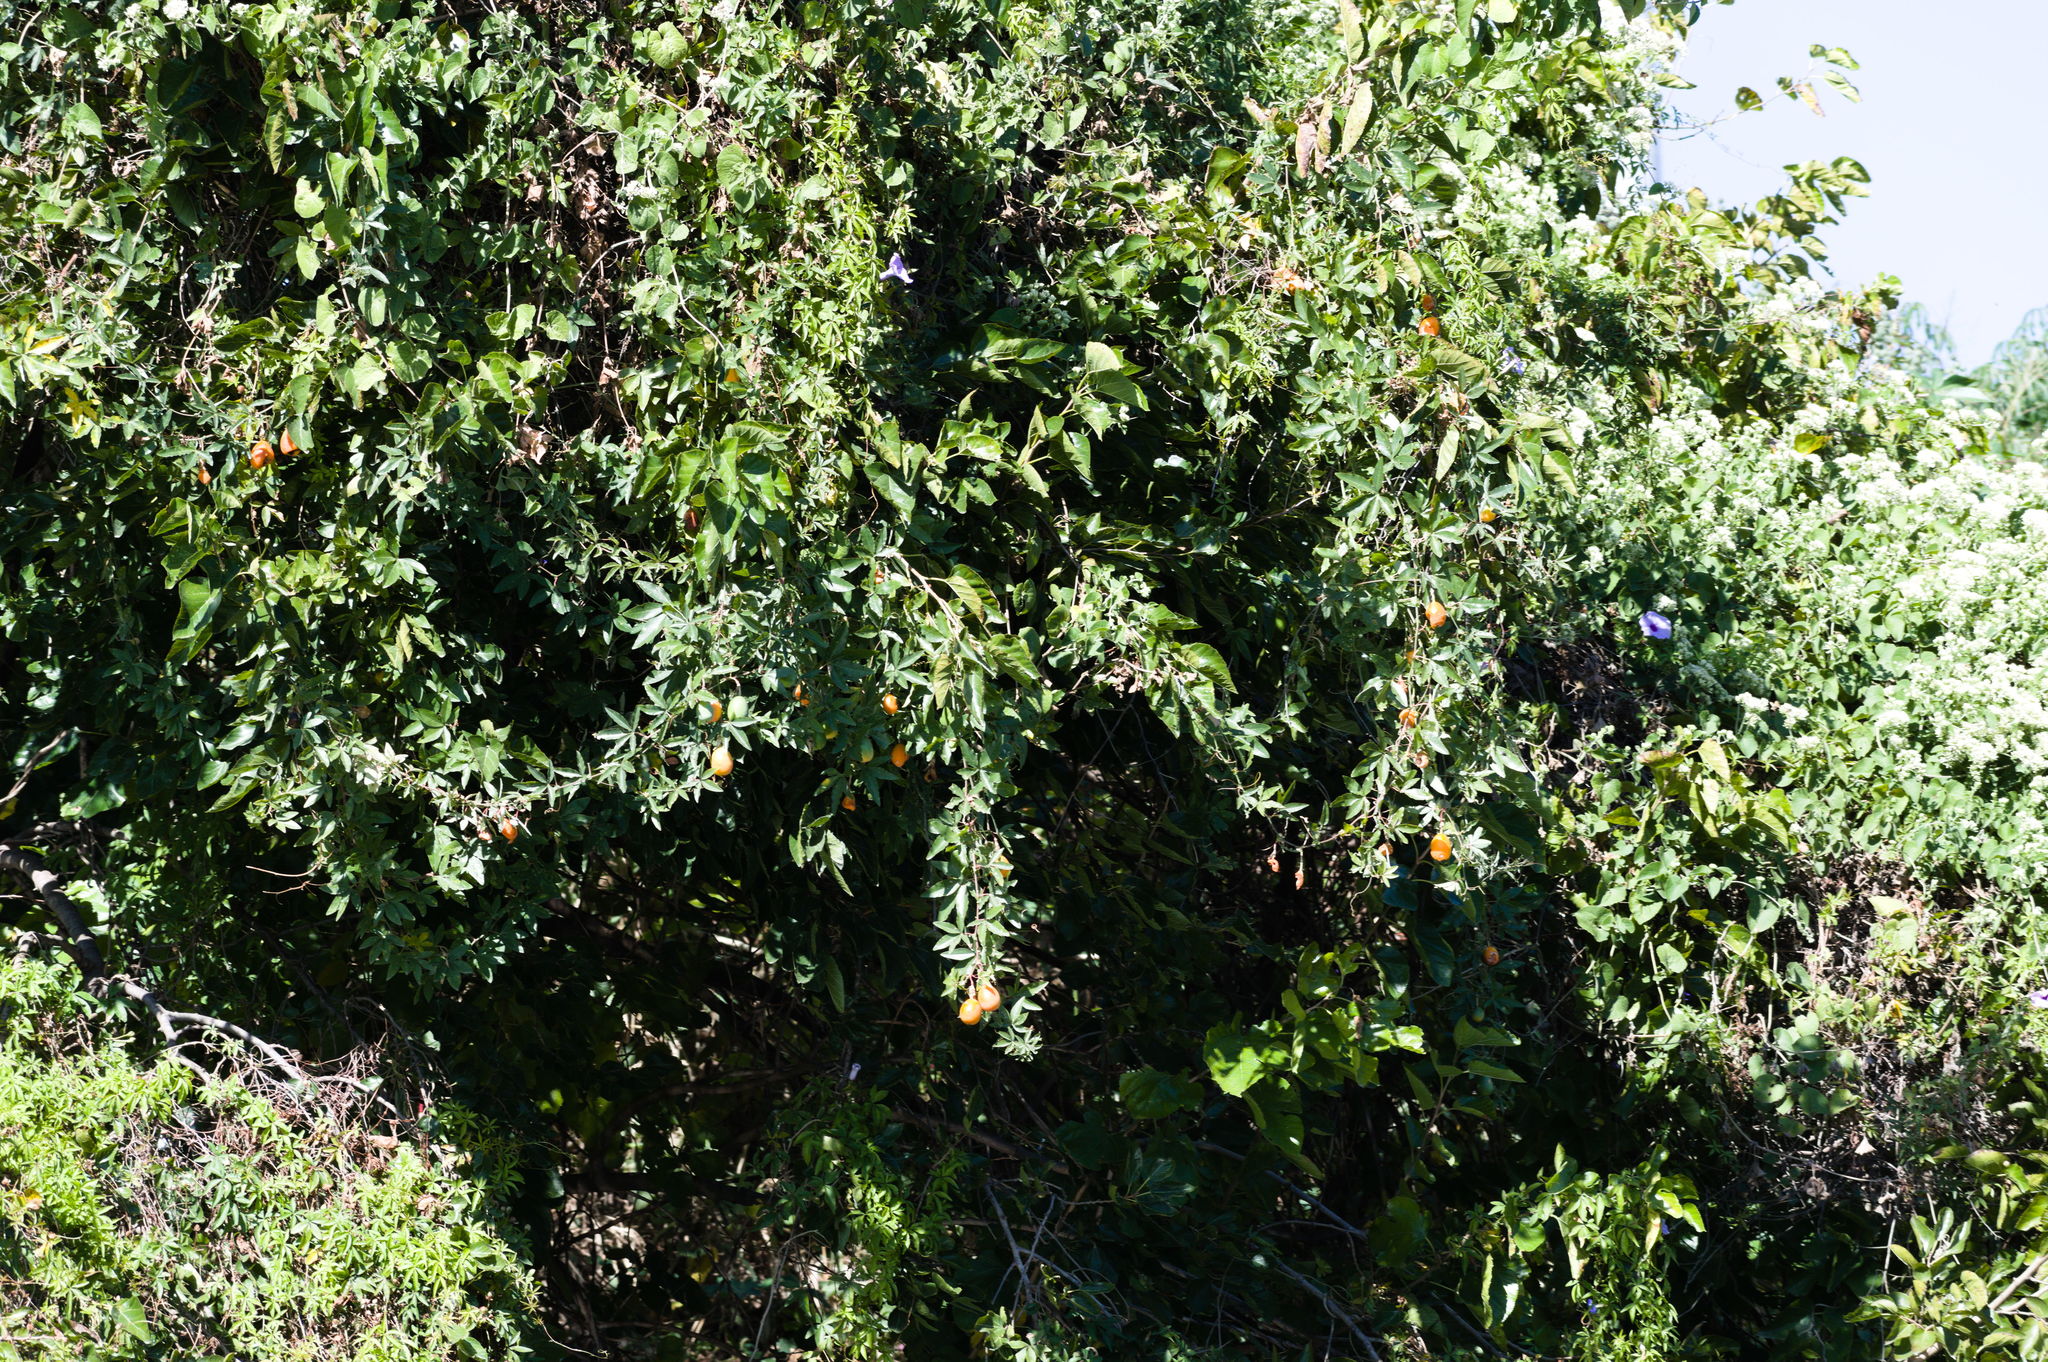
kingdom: Plantae
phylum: Tracheophyta
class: Magnoliopsida
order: Malpighiales
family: Passifloraceae
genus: Passiflora
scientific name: Passiflora caerulea
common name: Blue passionflower
